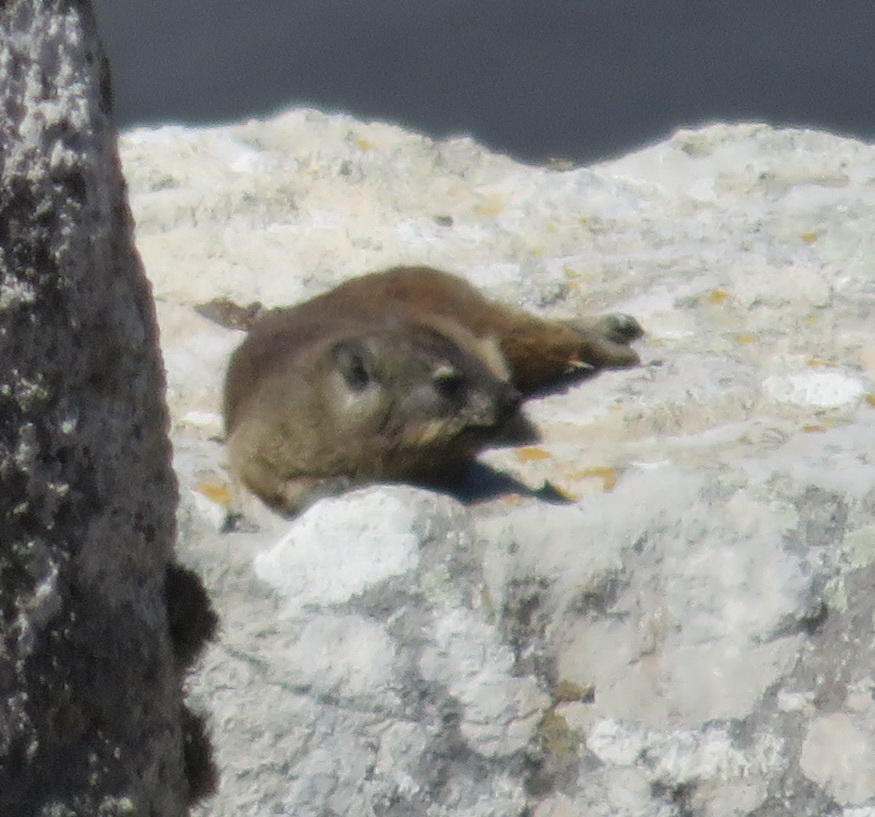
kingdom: Animalia
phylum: Chordata
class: Mammalia
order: Hyracoidea
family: Procaviidae
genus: Procavia
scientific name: Procavia capensis
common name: Rock hyrax
